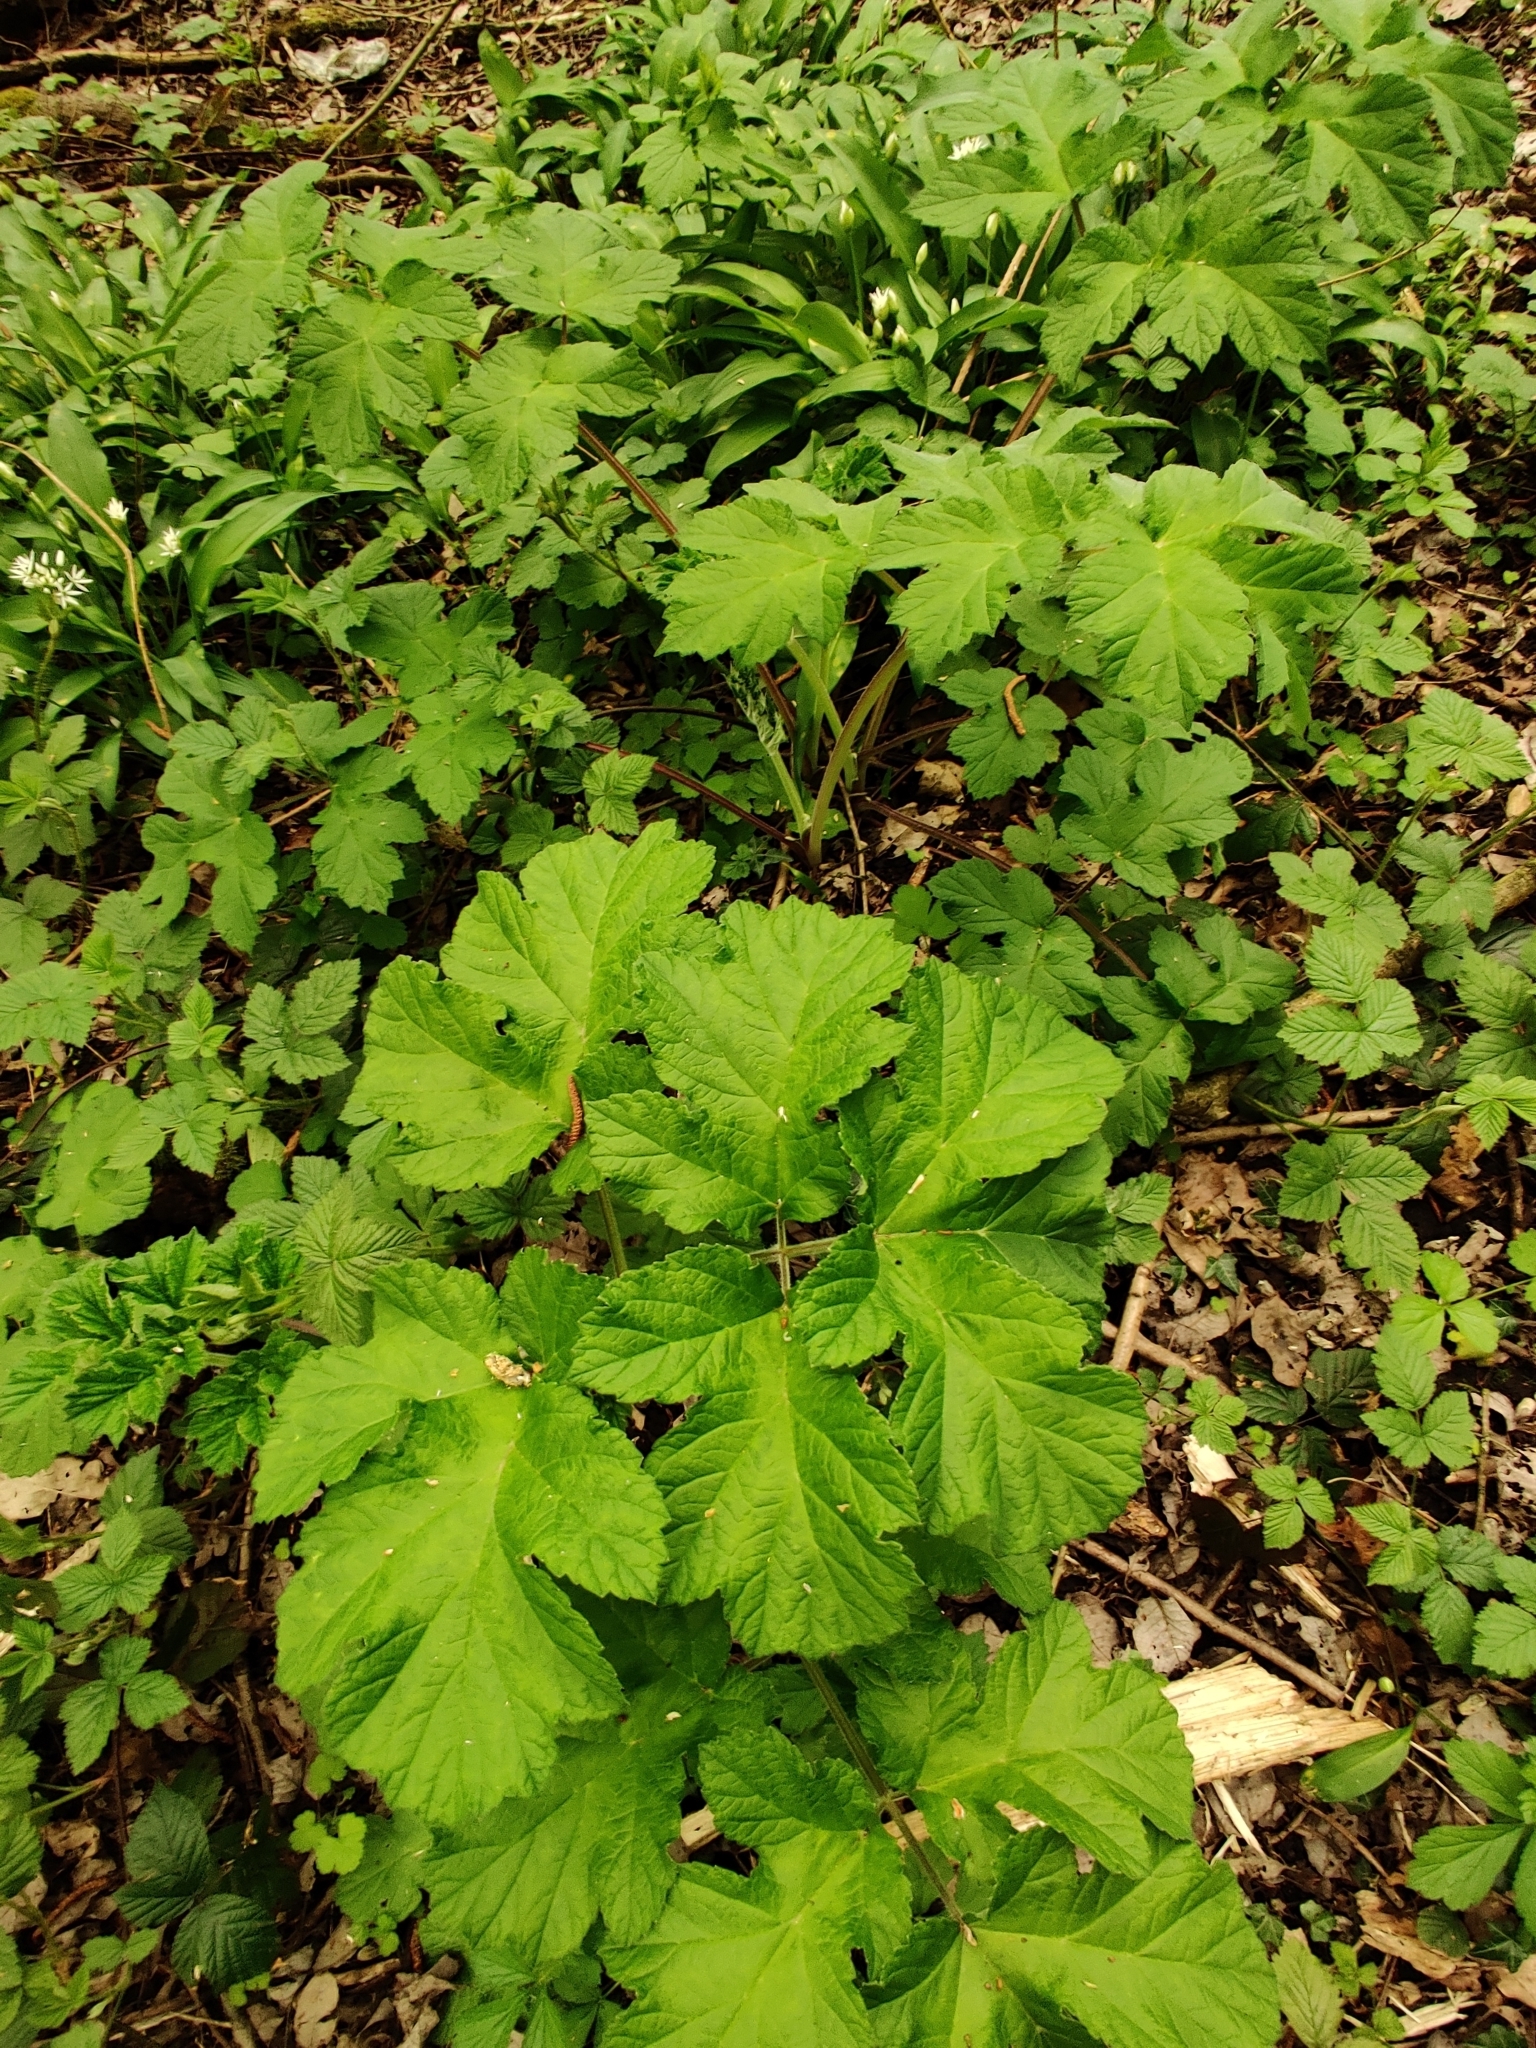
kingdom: Plantae
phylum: Tracheophyta
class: Magnoliopsida
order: Apiales
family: Apiaceae
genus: Heracleum
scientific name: Heracleum sphondylium
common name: Hogweed
